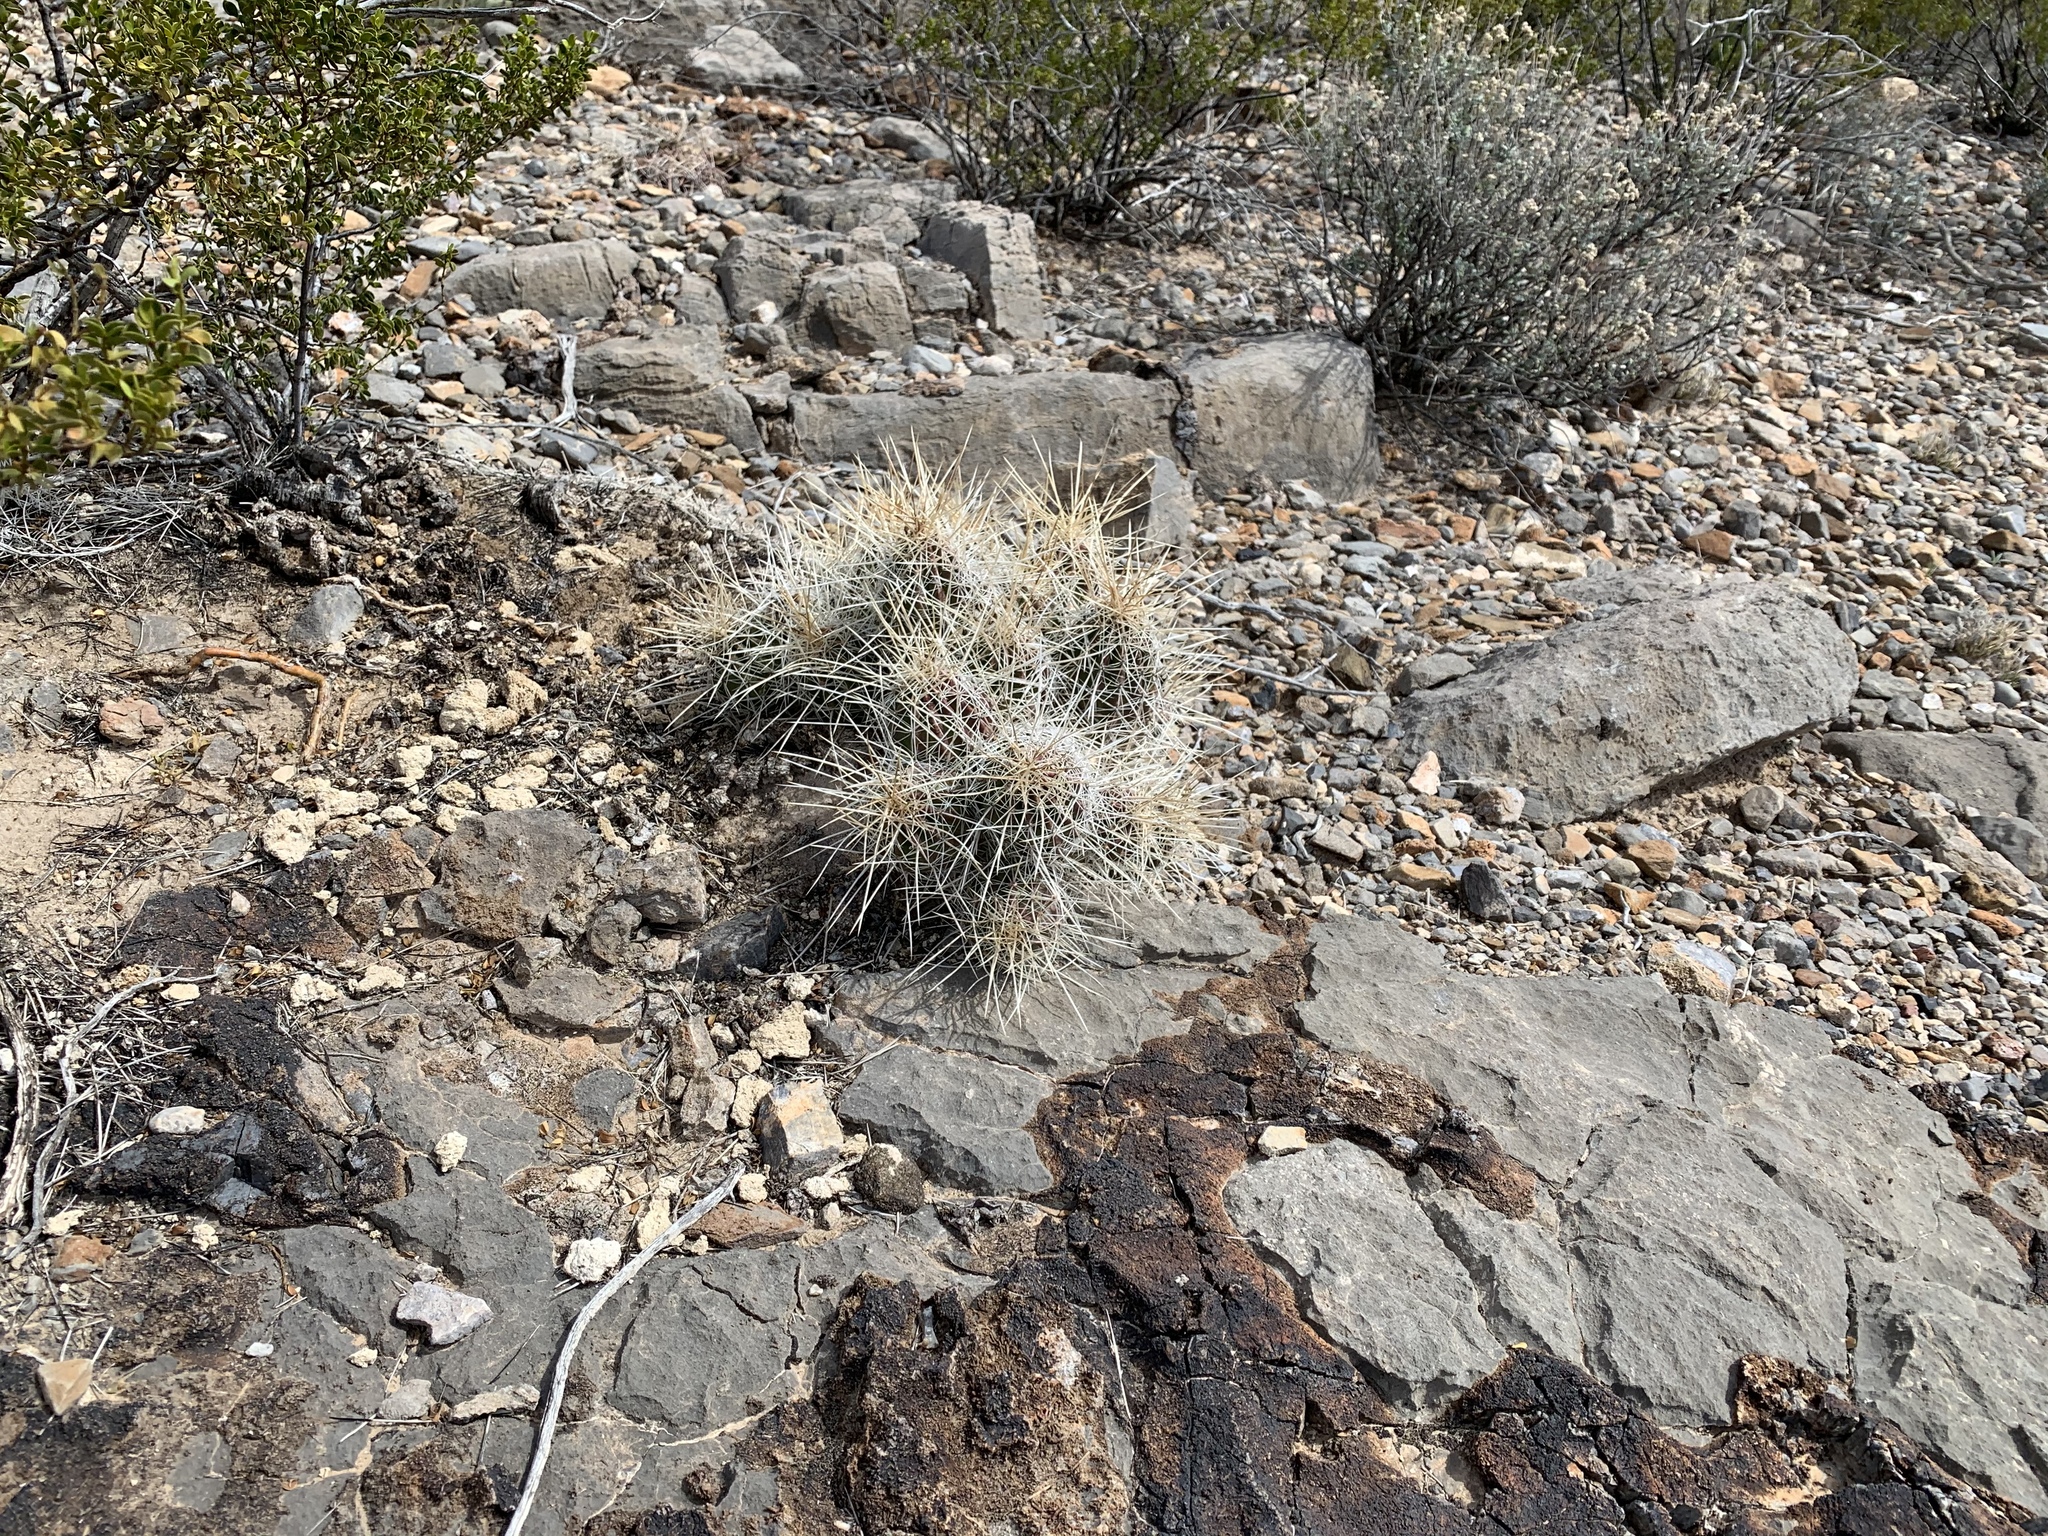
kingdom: Plantae
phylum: Tracheophyta
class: Magnoliopsida
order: Caryophyllales
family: Cactaceae
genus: Echinocereus
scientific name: Echinocereus stramineus
